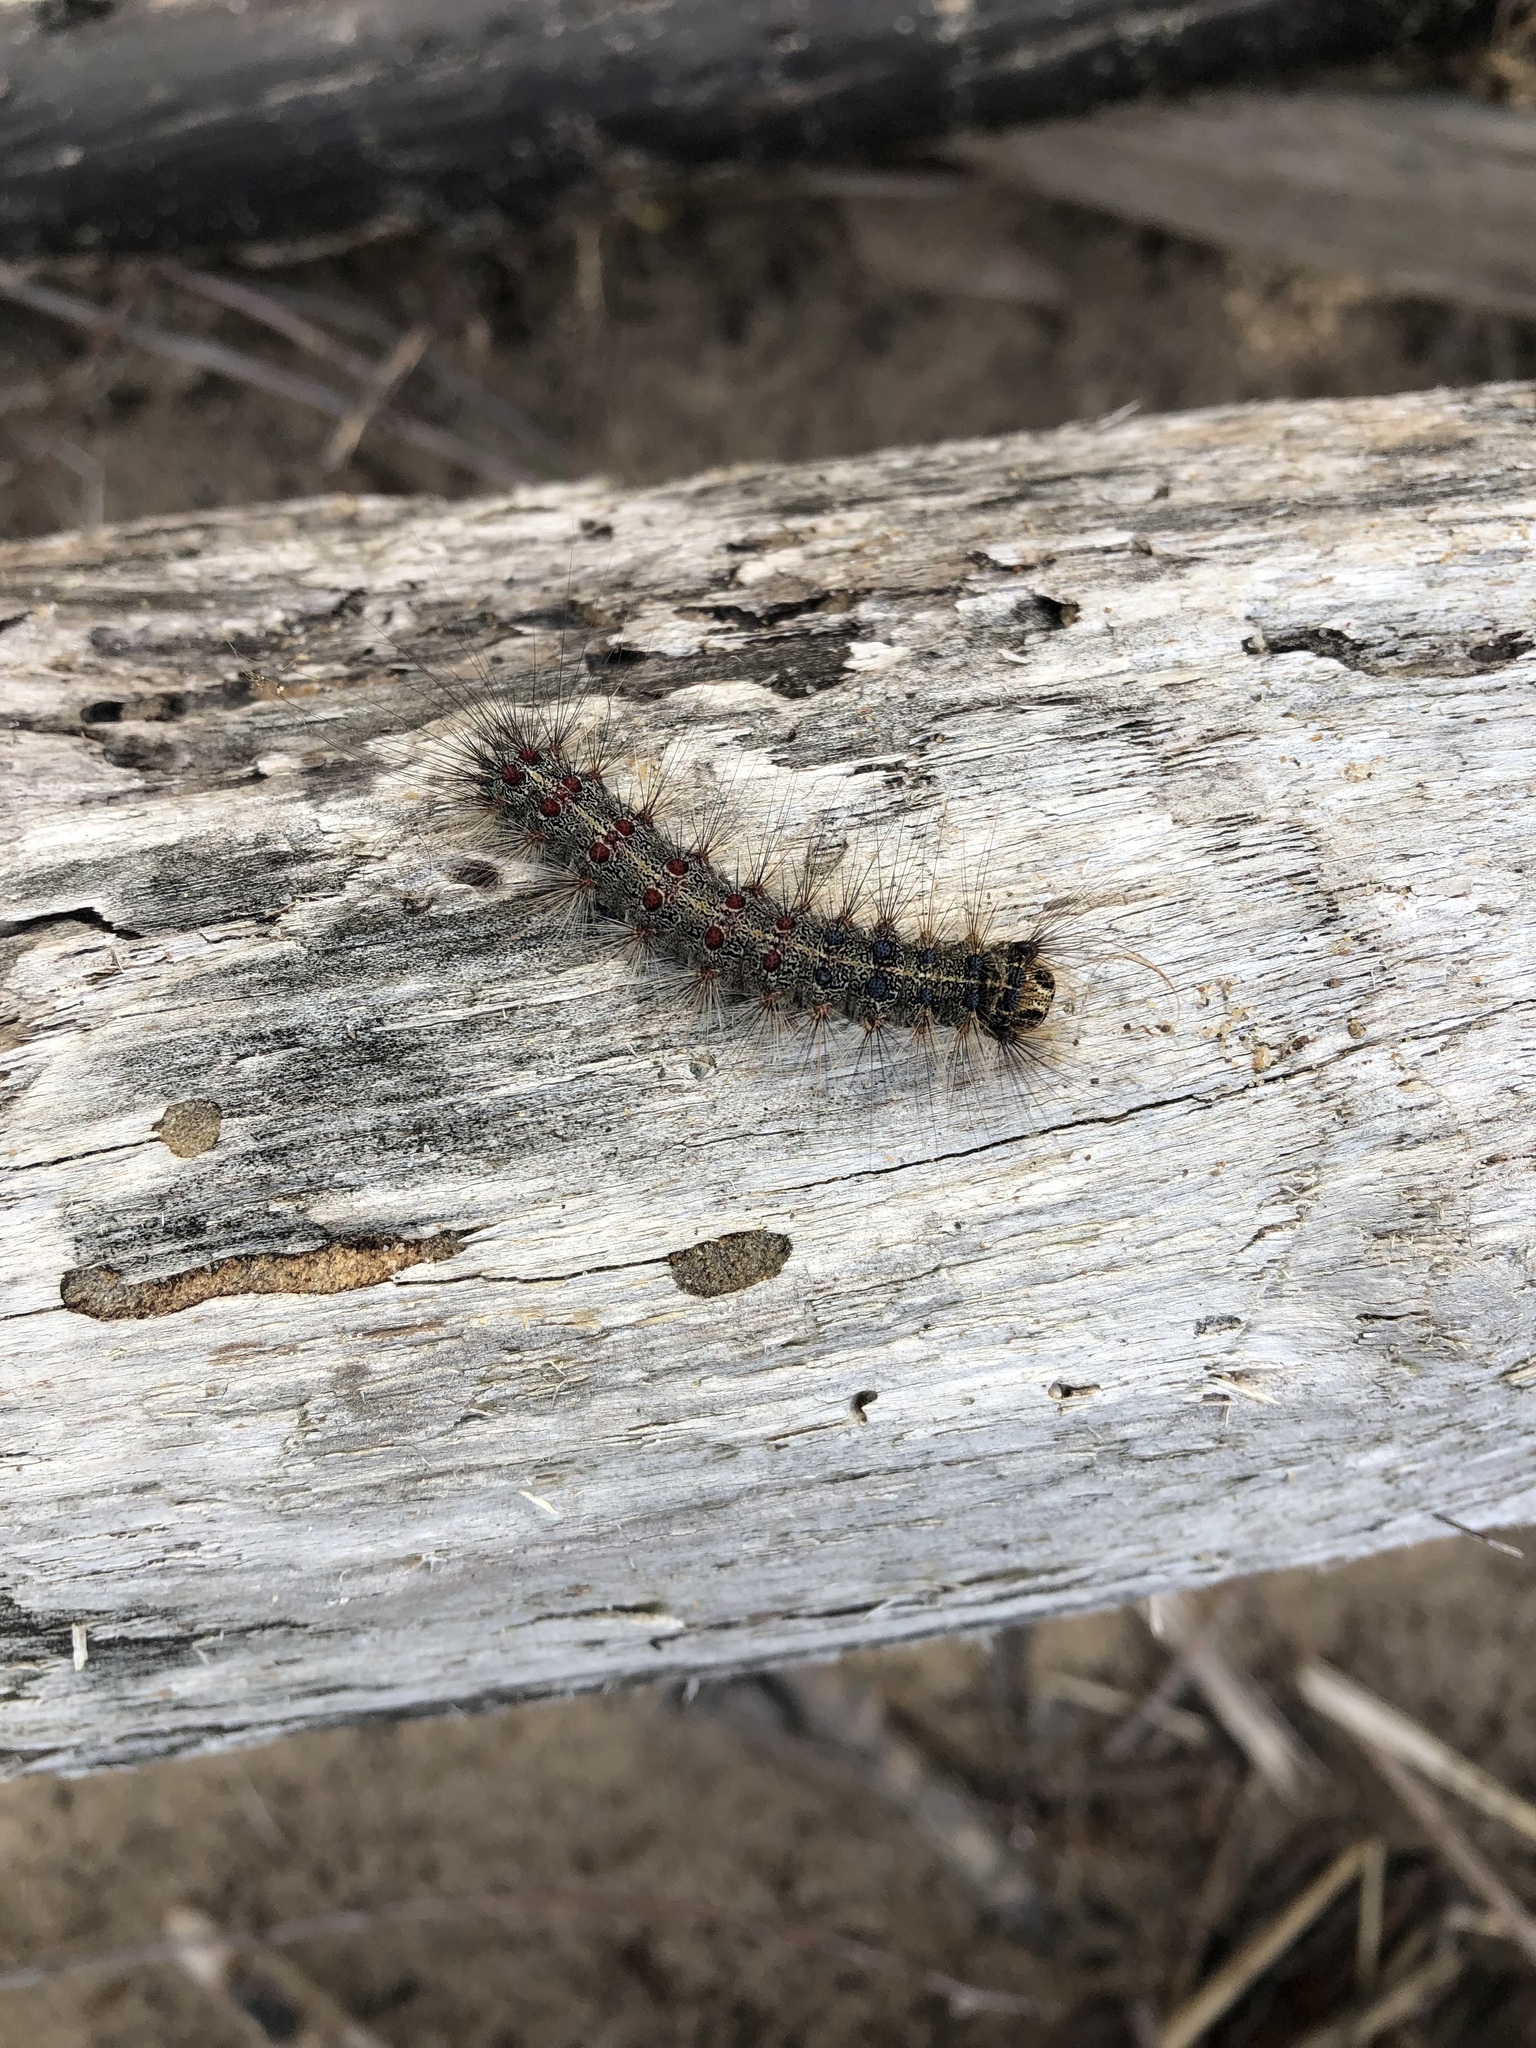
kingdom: Animalia
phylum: Arthropoda
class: Insecta
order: Lepidoptera
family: Erebidae
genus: Lymantria
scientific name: Lymantria dispar
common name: Gypsy moth
